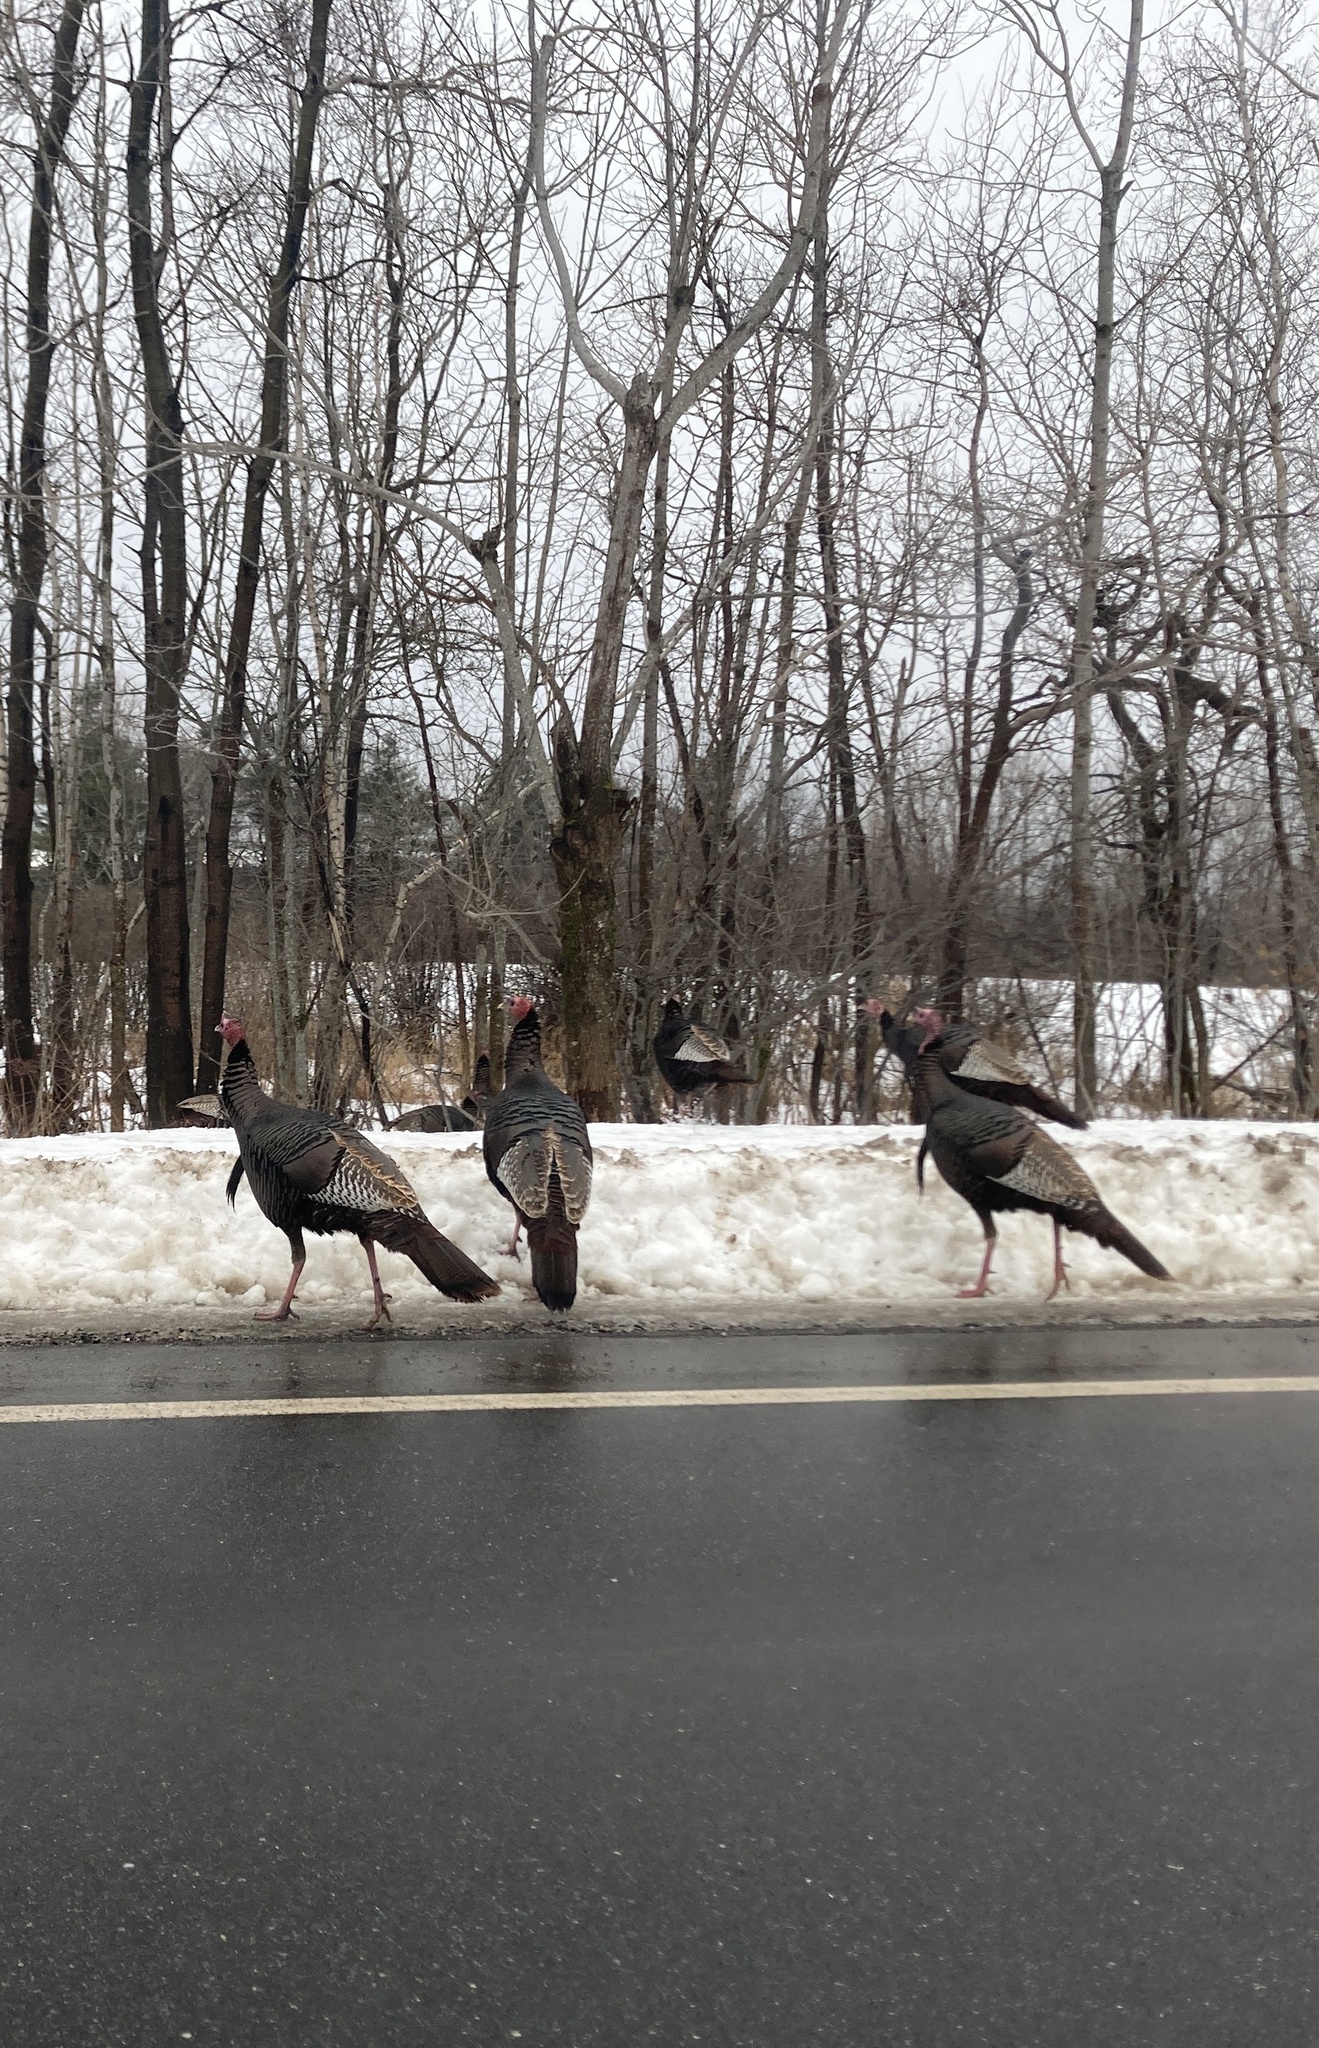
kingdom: Animalia
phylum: Chordata
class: Aves
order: Galliformes
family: Phasianidae
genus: Meleagris
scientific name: Meleagris gallopavo
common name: Wild turkey
